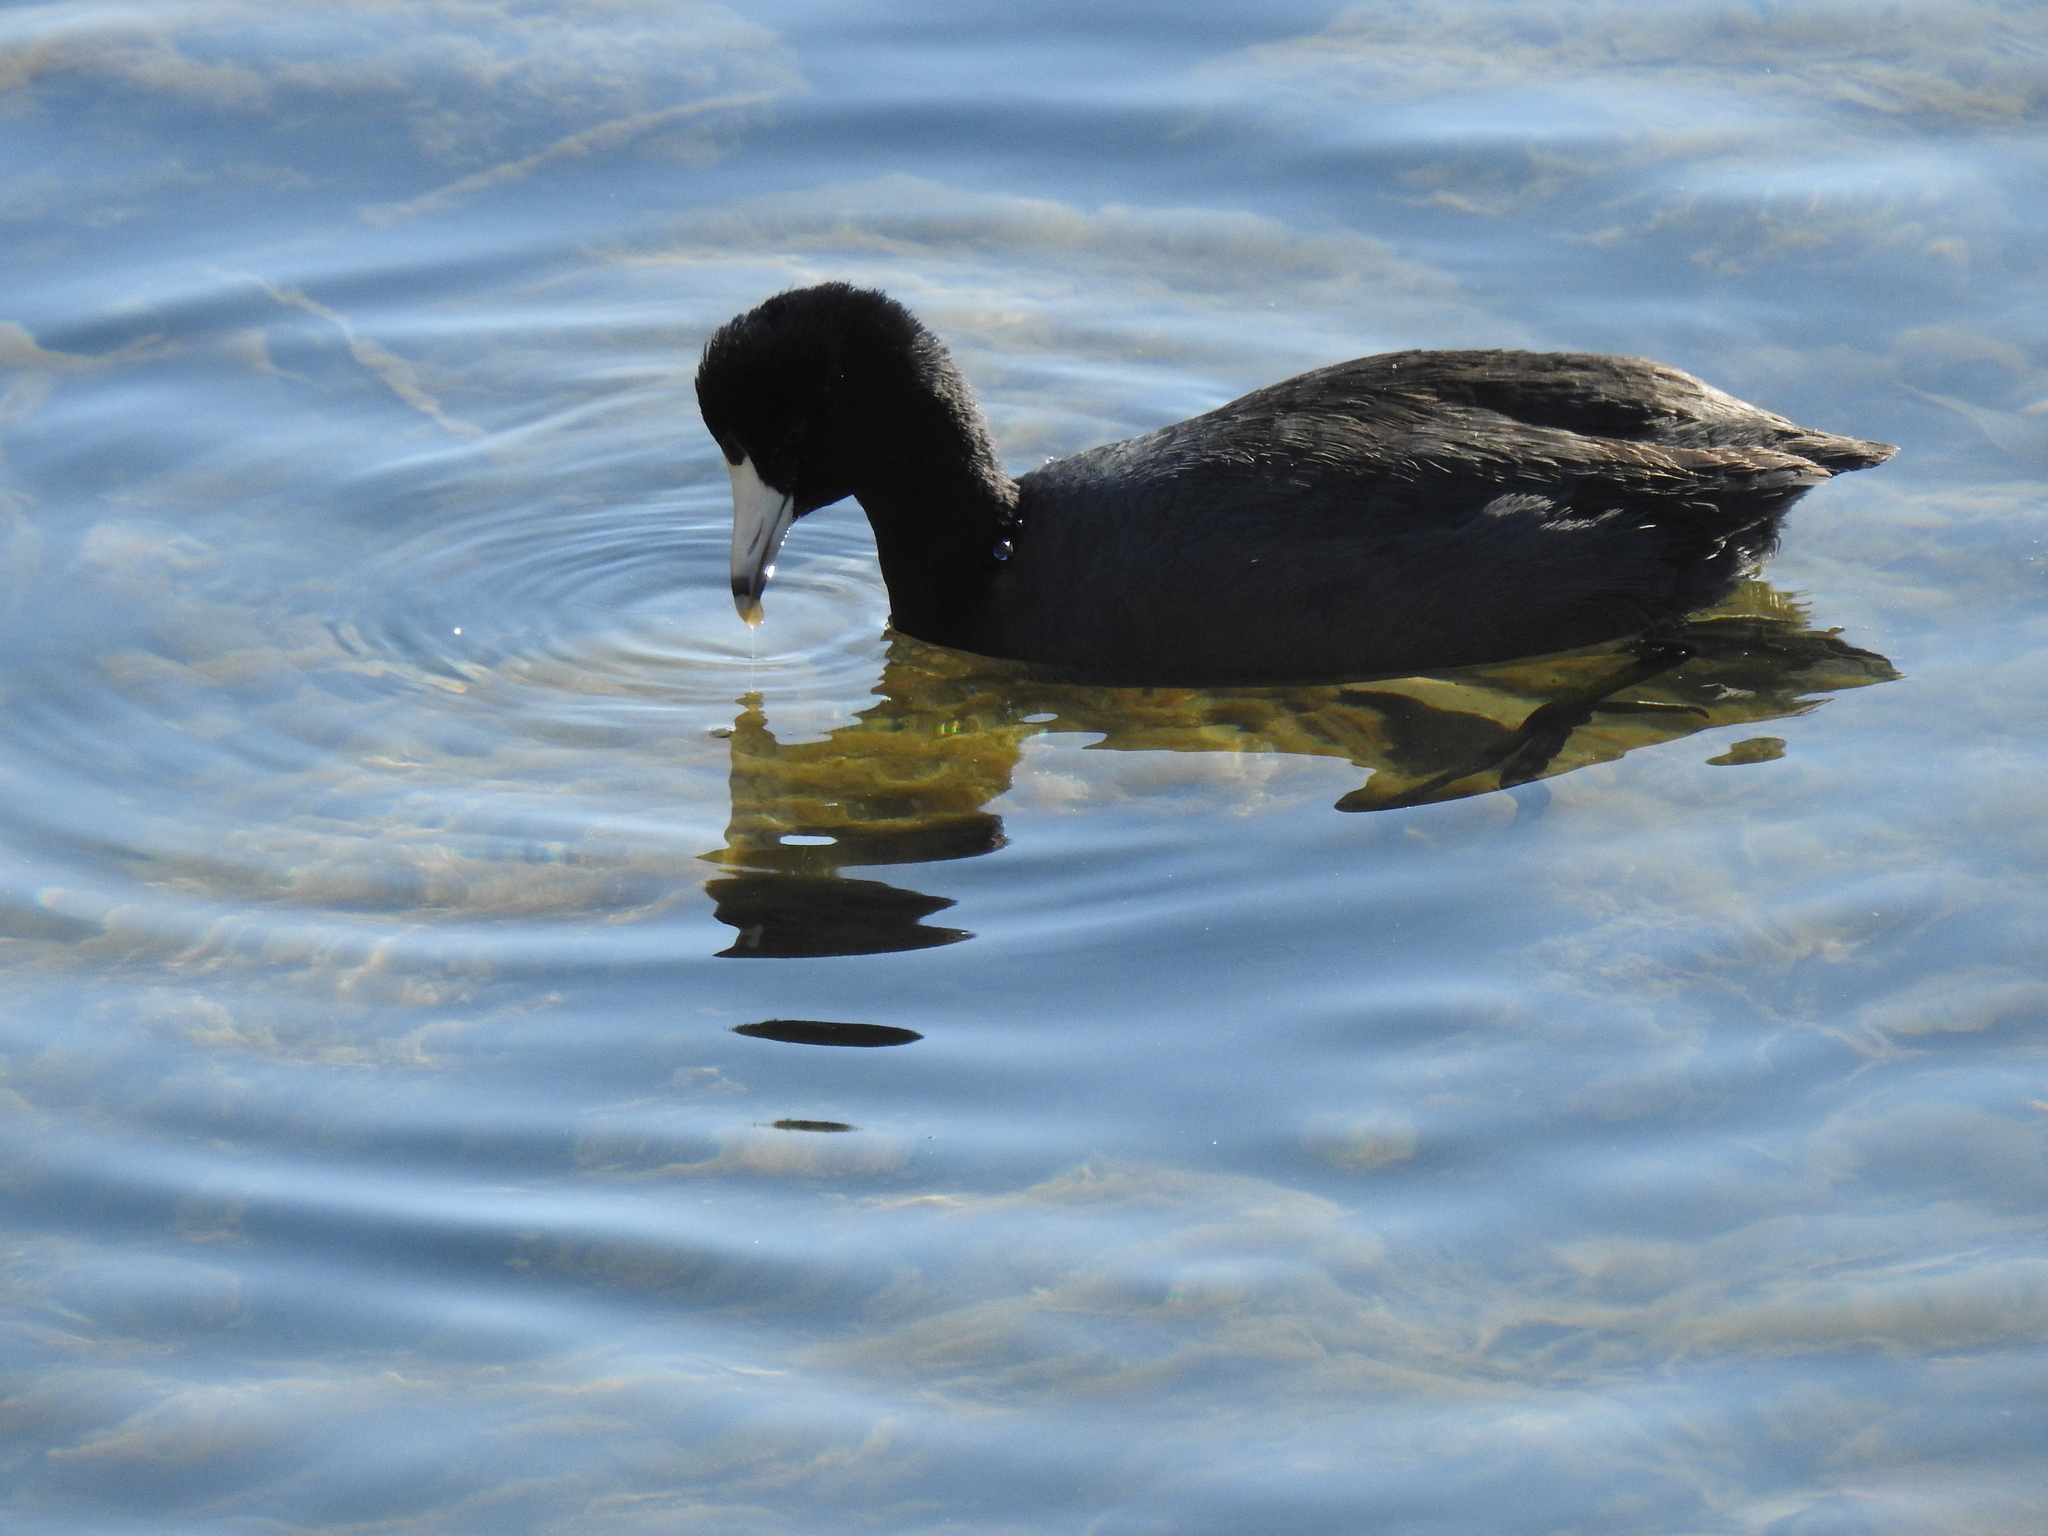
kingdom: Animalia
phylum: Chordata
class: Aves
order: Gruiformes
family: Rallidae
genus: Fulica
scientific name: Fulica americana
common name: American coot
